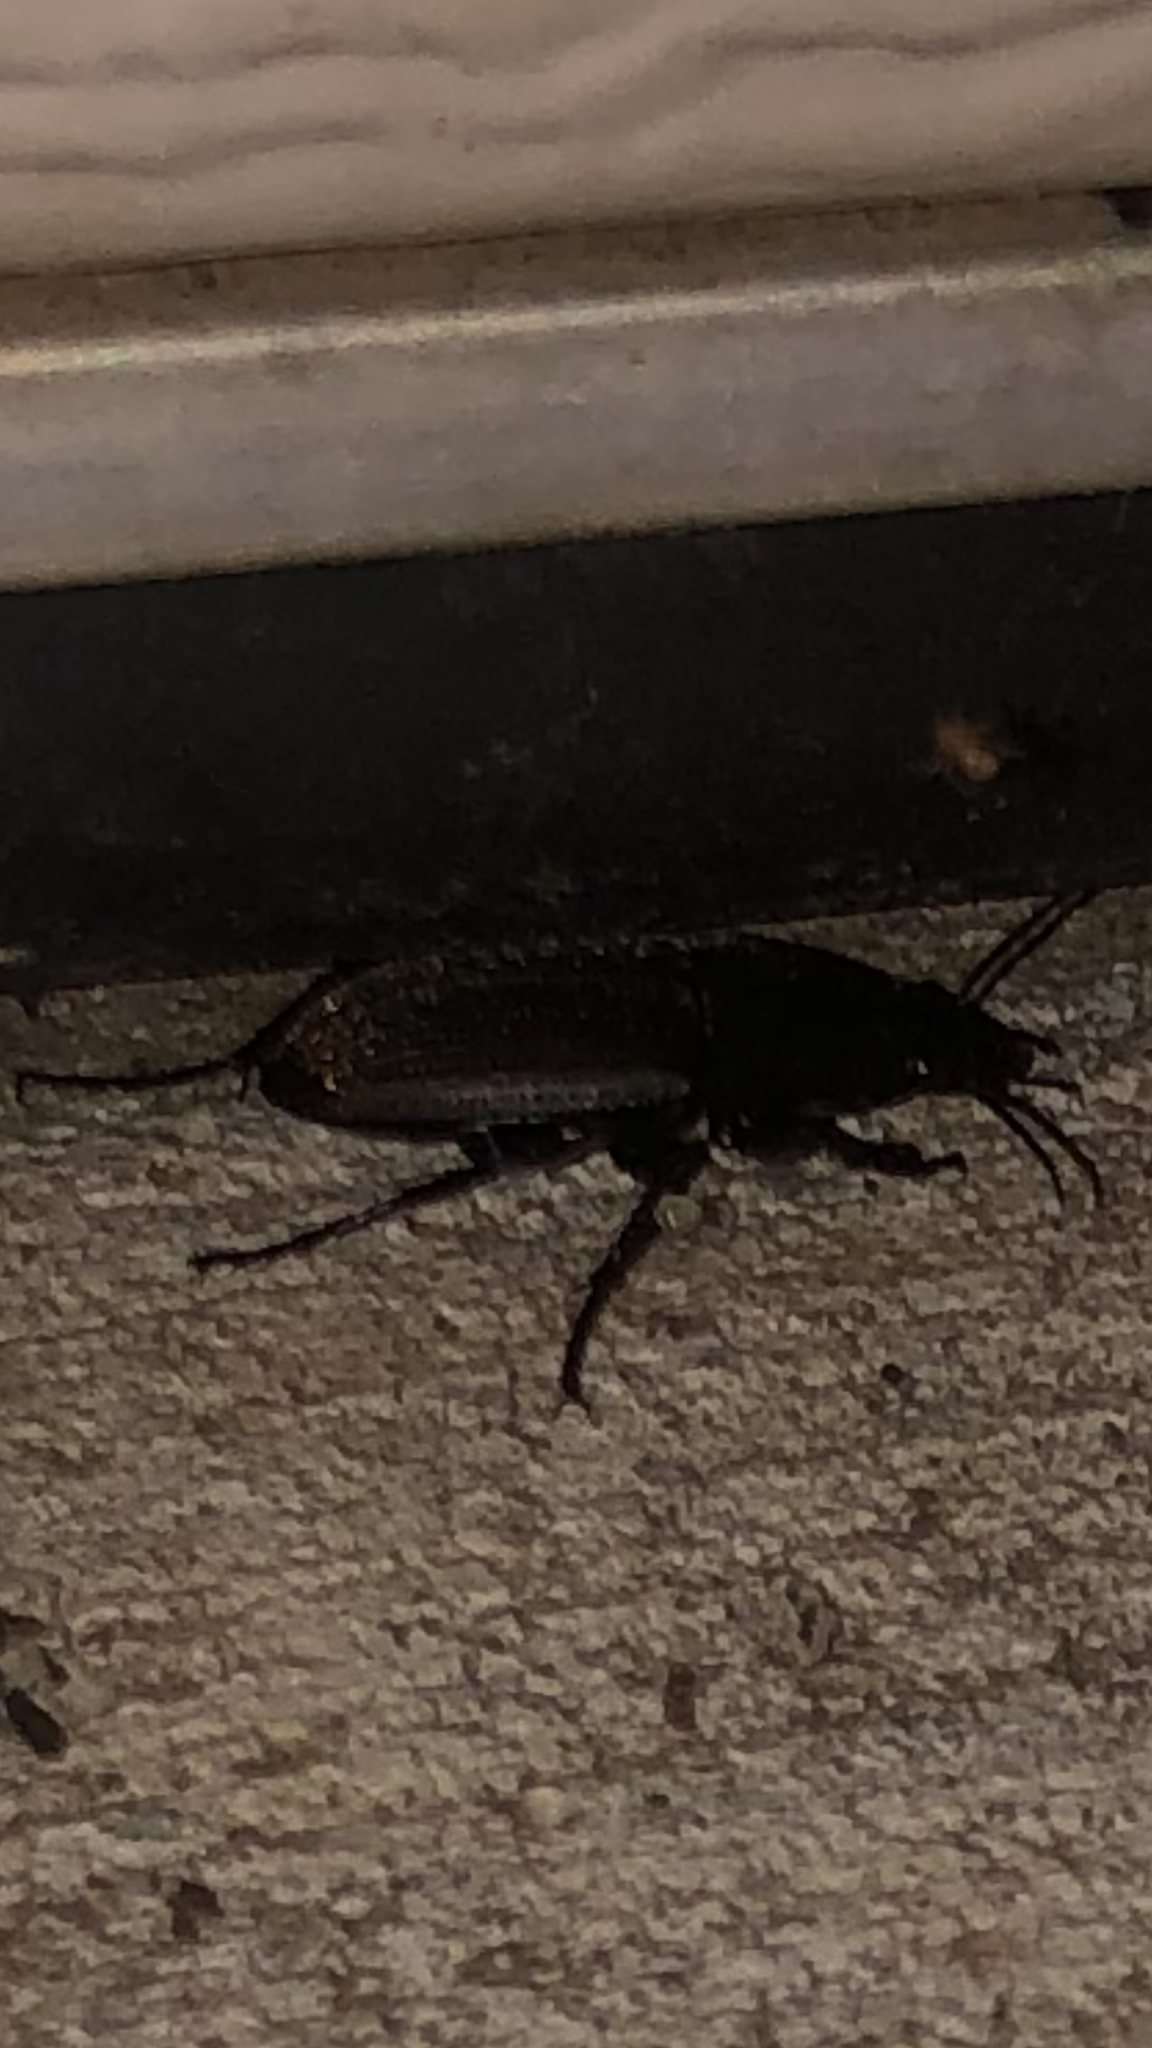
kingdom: Animalia
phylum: Arthropoda
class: Insecta
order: Coleoptera
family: Carabidae
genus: Chlaenius
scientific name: Chlaenius tomentosus
